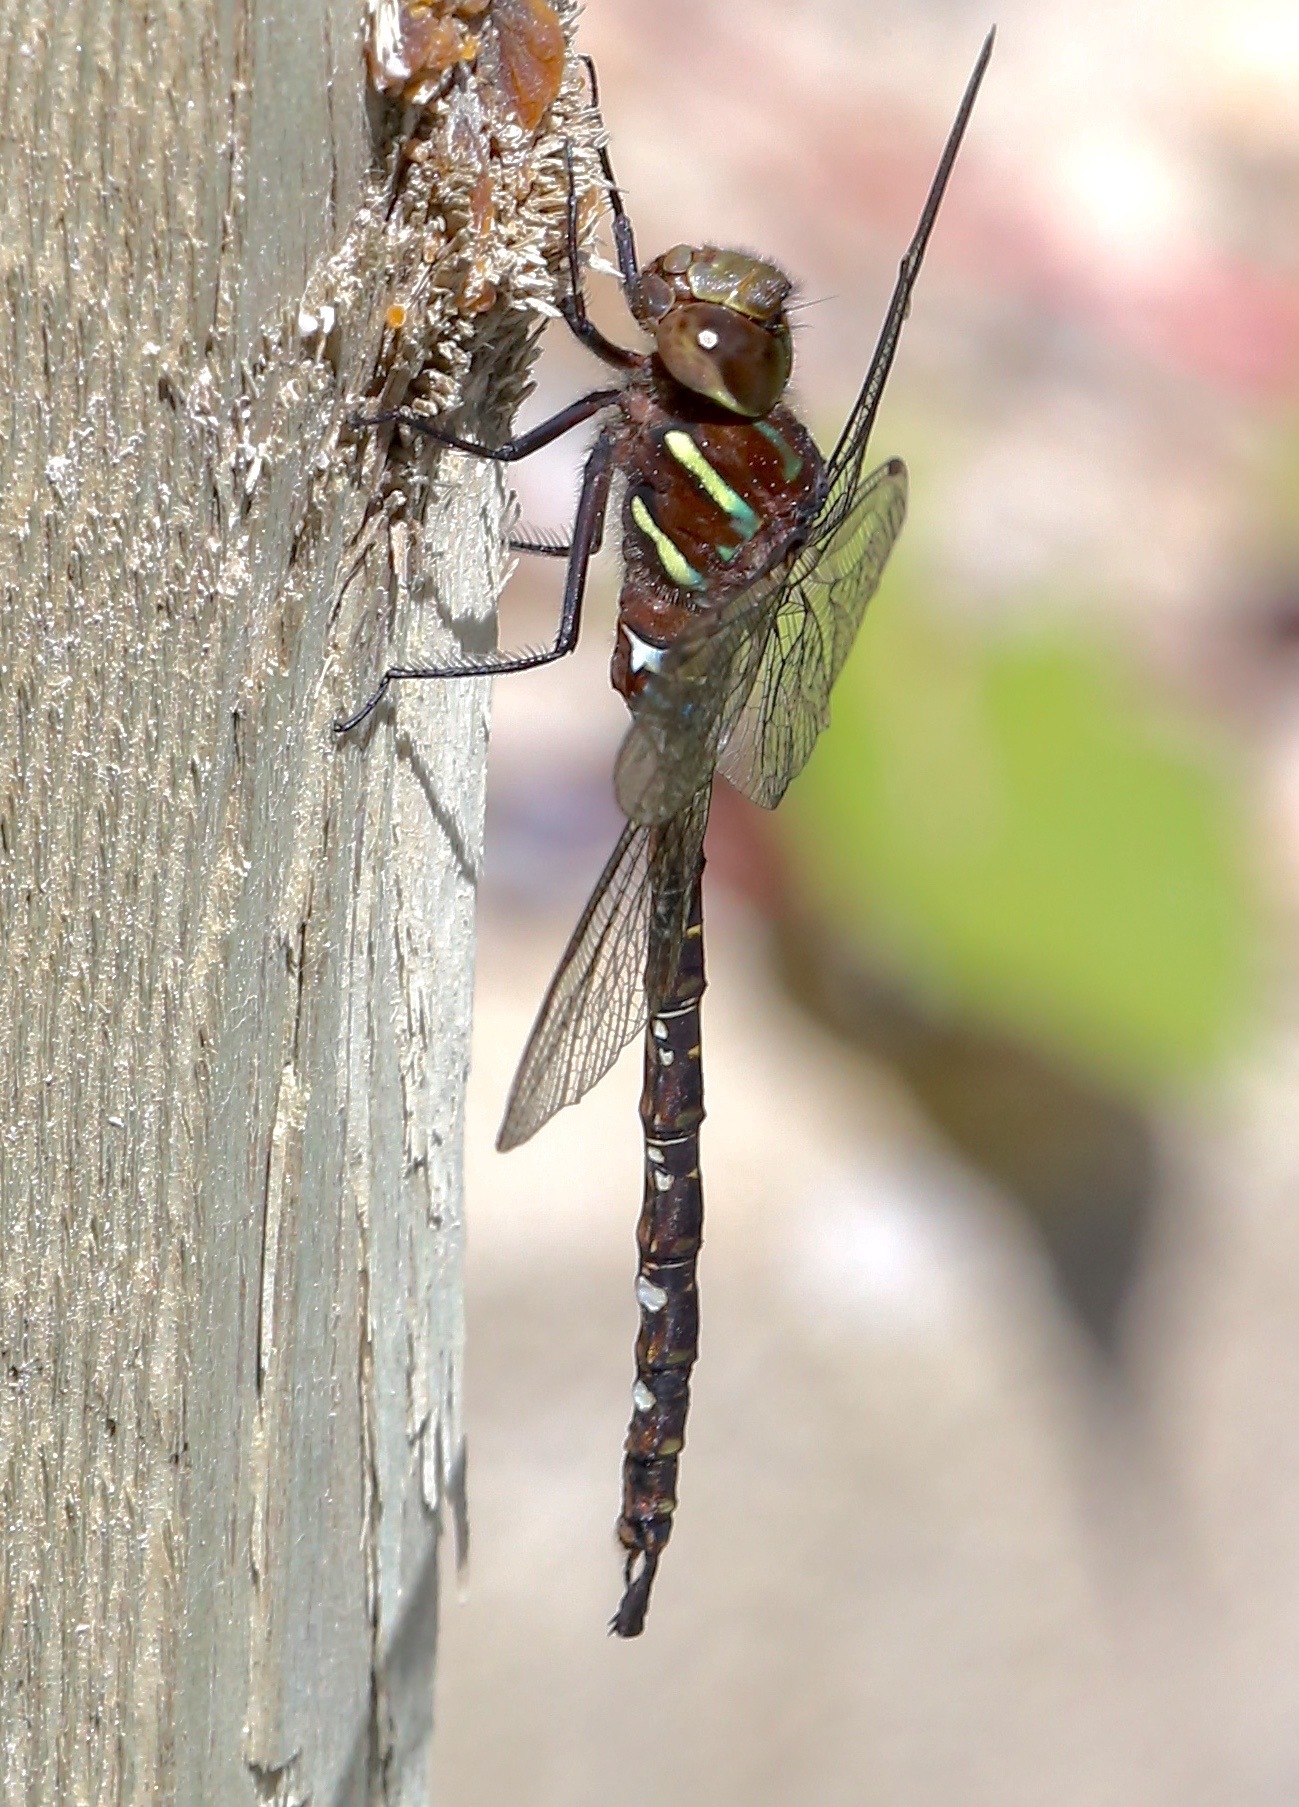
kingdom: Animalia
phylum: Arthropoda
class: Insecta
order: Odonata
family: Aeshnidae
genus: Aeshna
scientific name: Aeshna umbrosa
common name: Shadow darner
